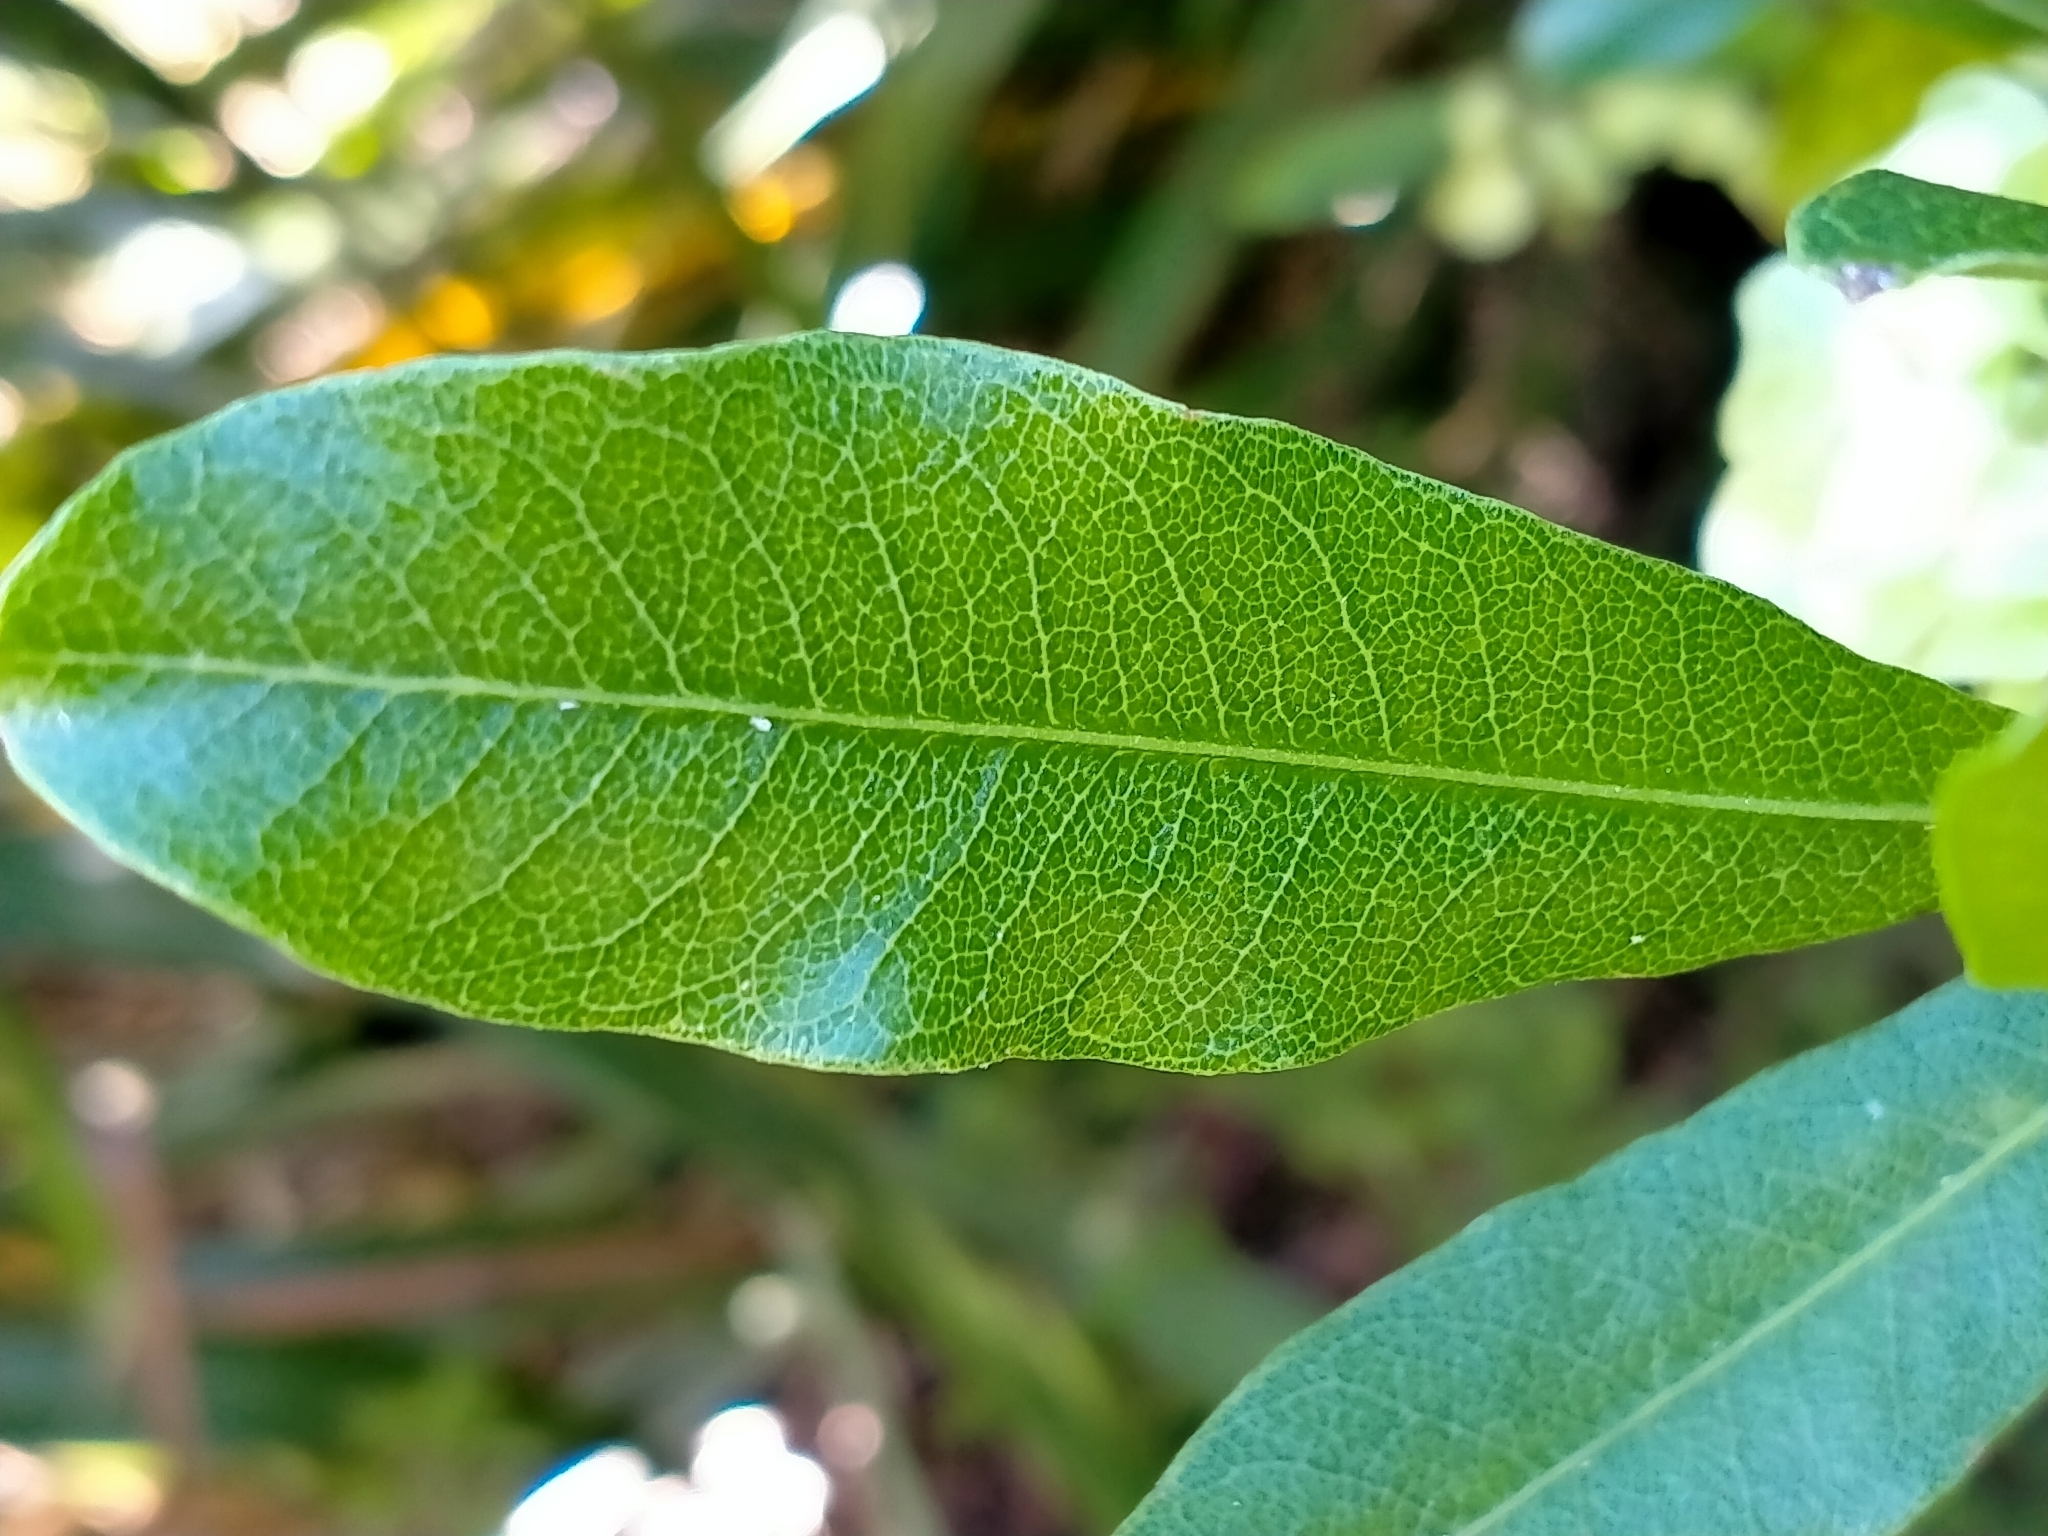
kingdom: Plantae
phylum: Tracheophyta
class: Magnoliopsida
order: Sapindales
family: Sapindaceae
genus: Dodonaea
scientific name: Dodonaea viscosa
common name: Hopbush
